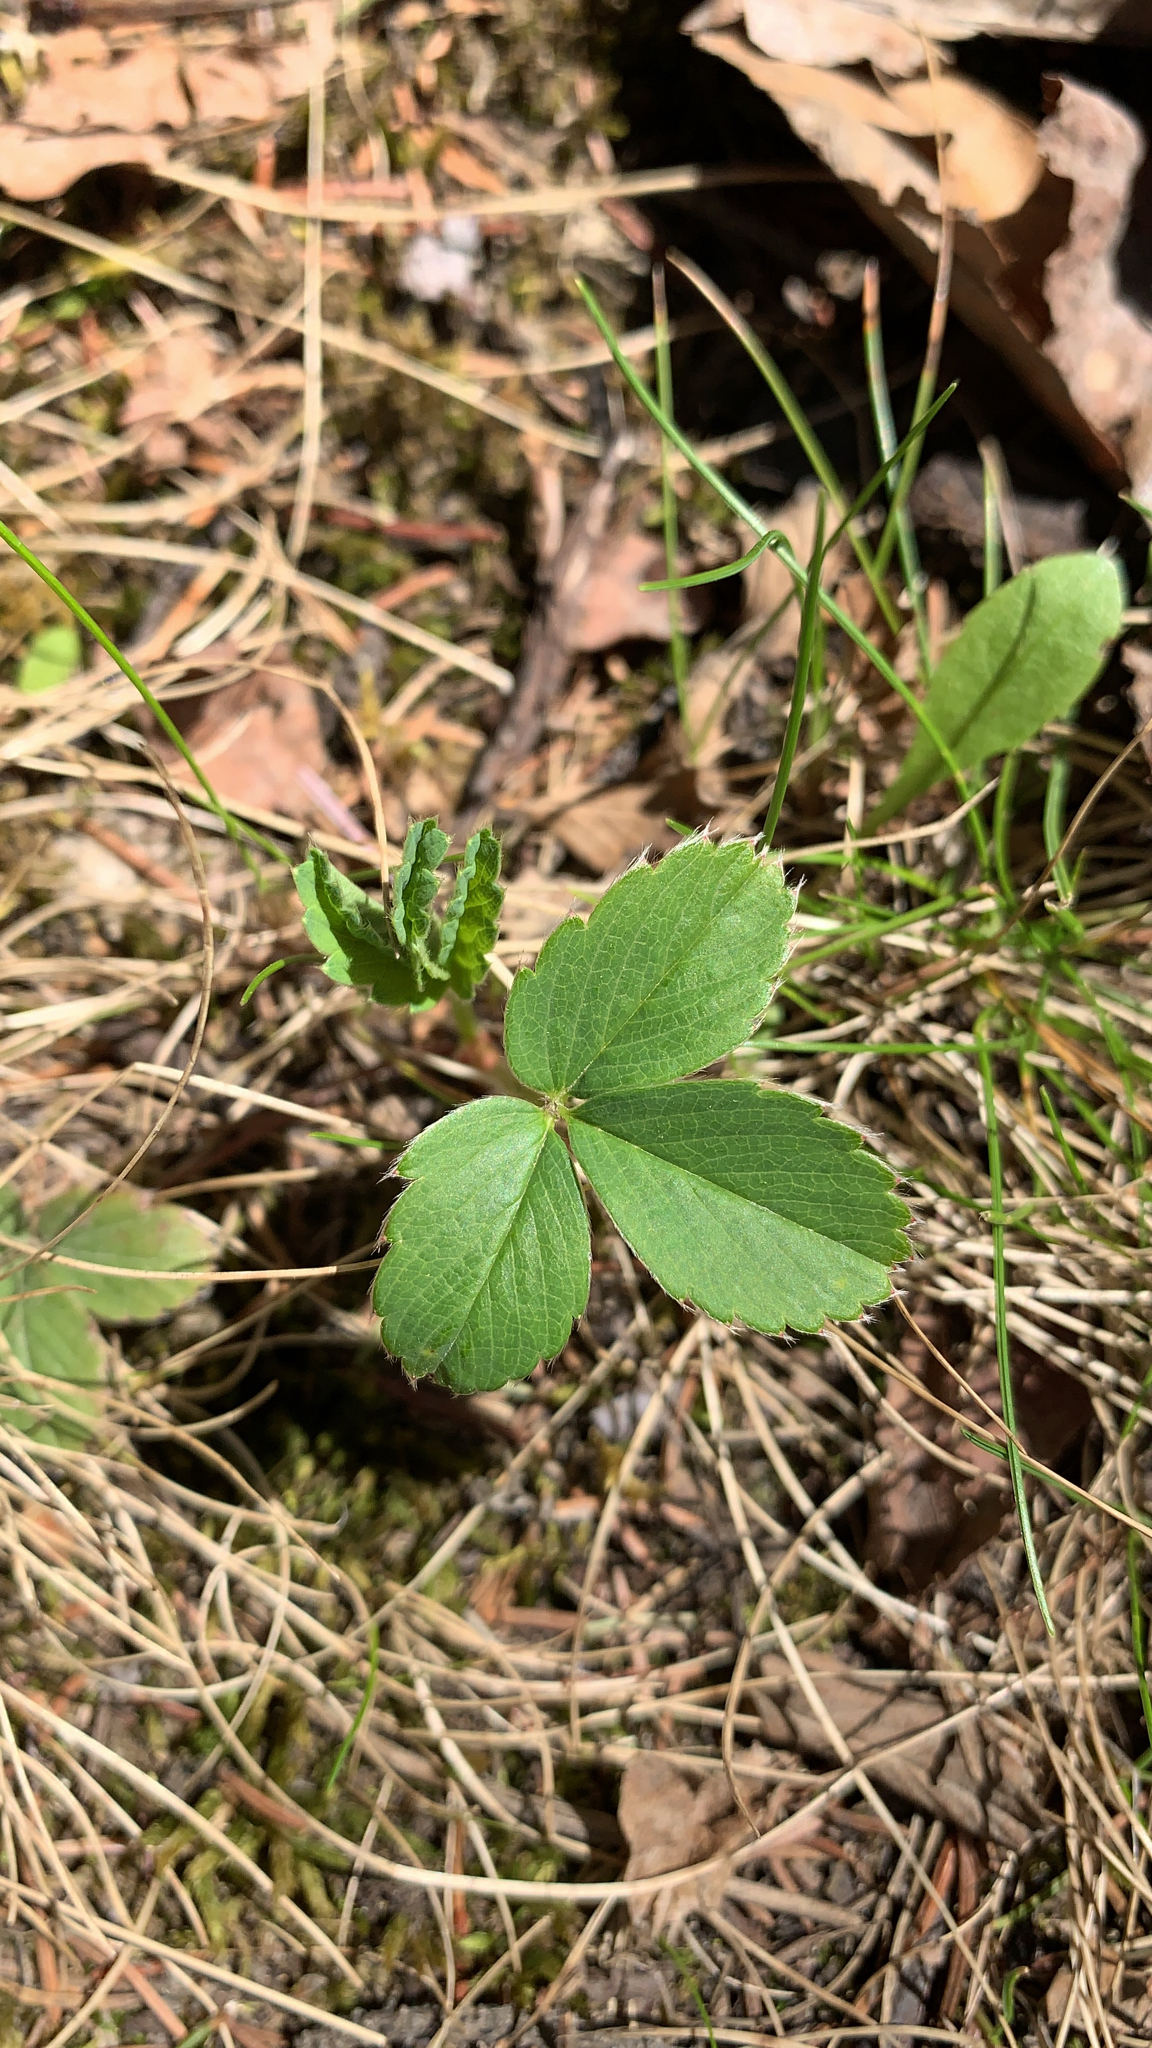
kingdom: Plantae
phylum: Tracheophyta
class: Magnoliopsida
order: Rosales
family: Rosaceae
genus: Fragaria
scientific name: Fragaria virginiana
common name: Thickleaved wild strawberry
